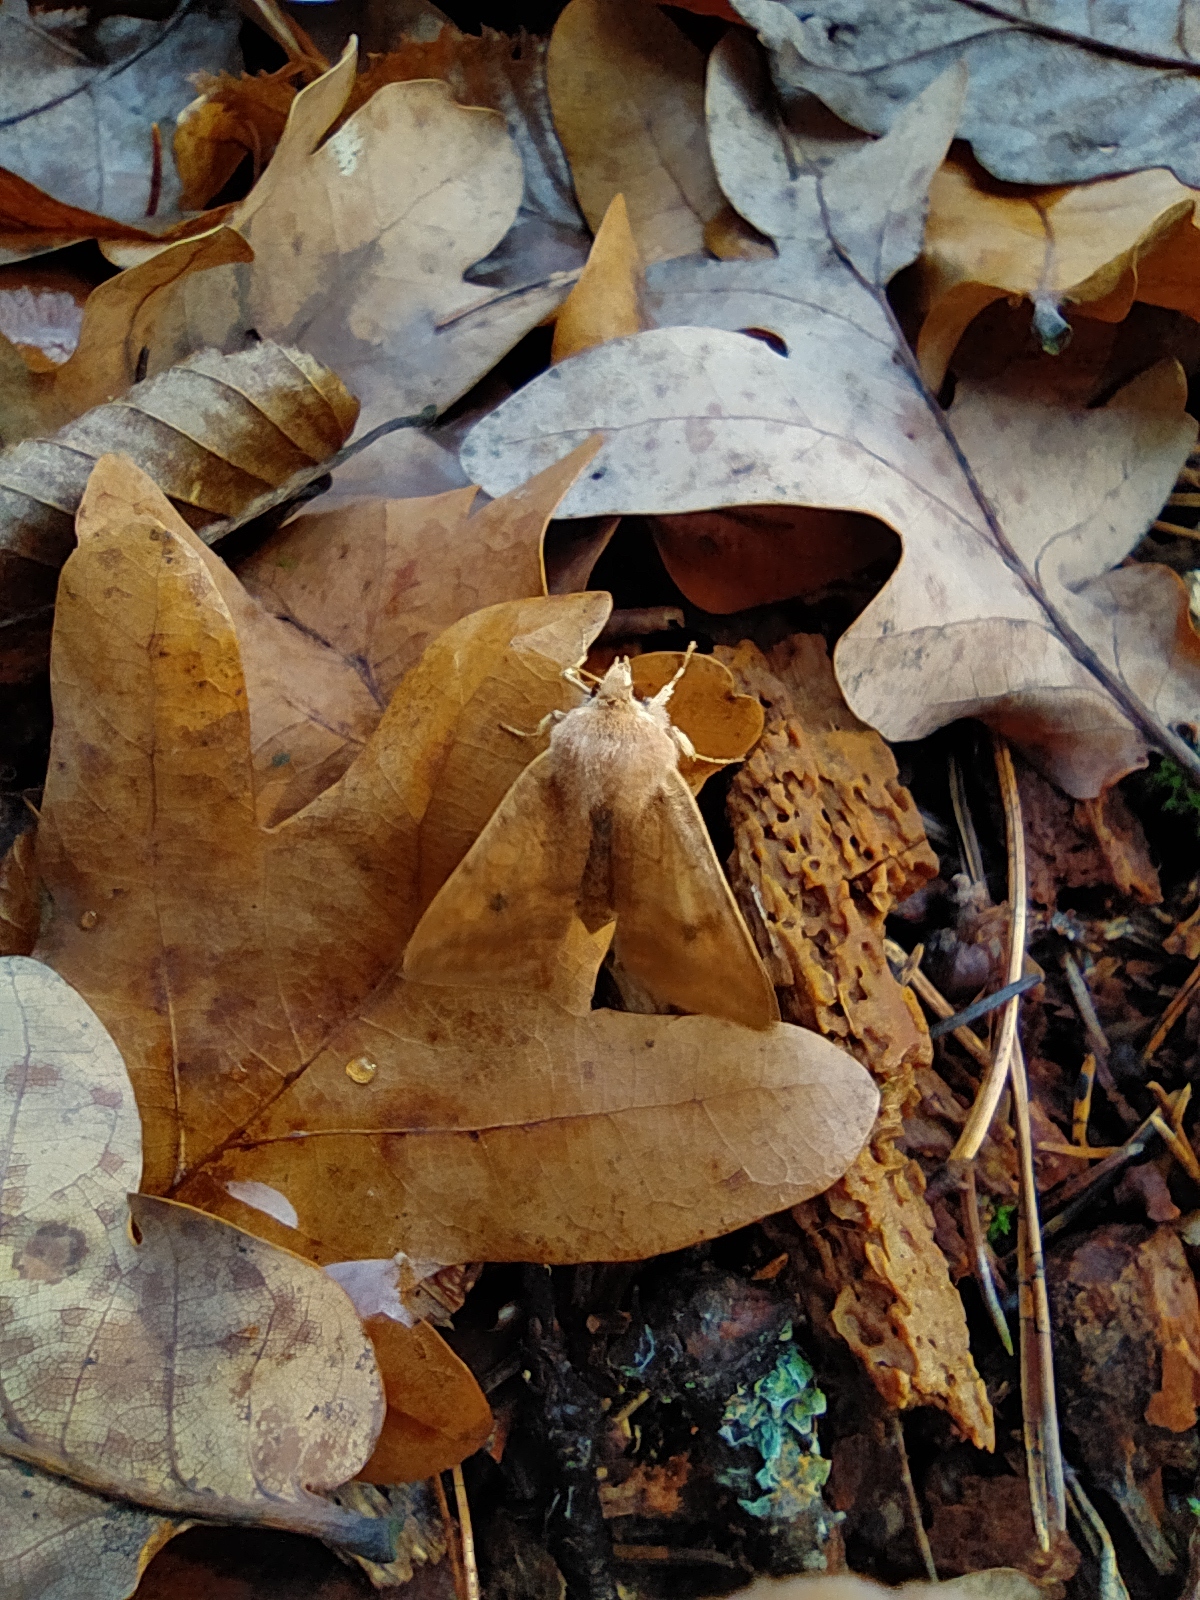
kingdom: Animalia
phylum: Arthropoda
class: Insecta
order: Lepidoptera
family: Noctuidae
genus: Sunira
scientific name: Sunira circellaris
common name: Brick
